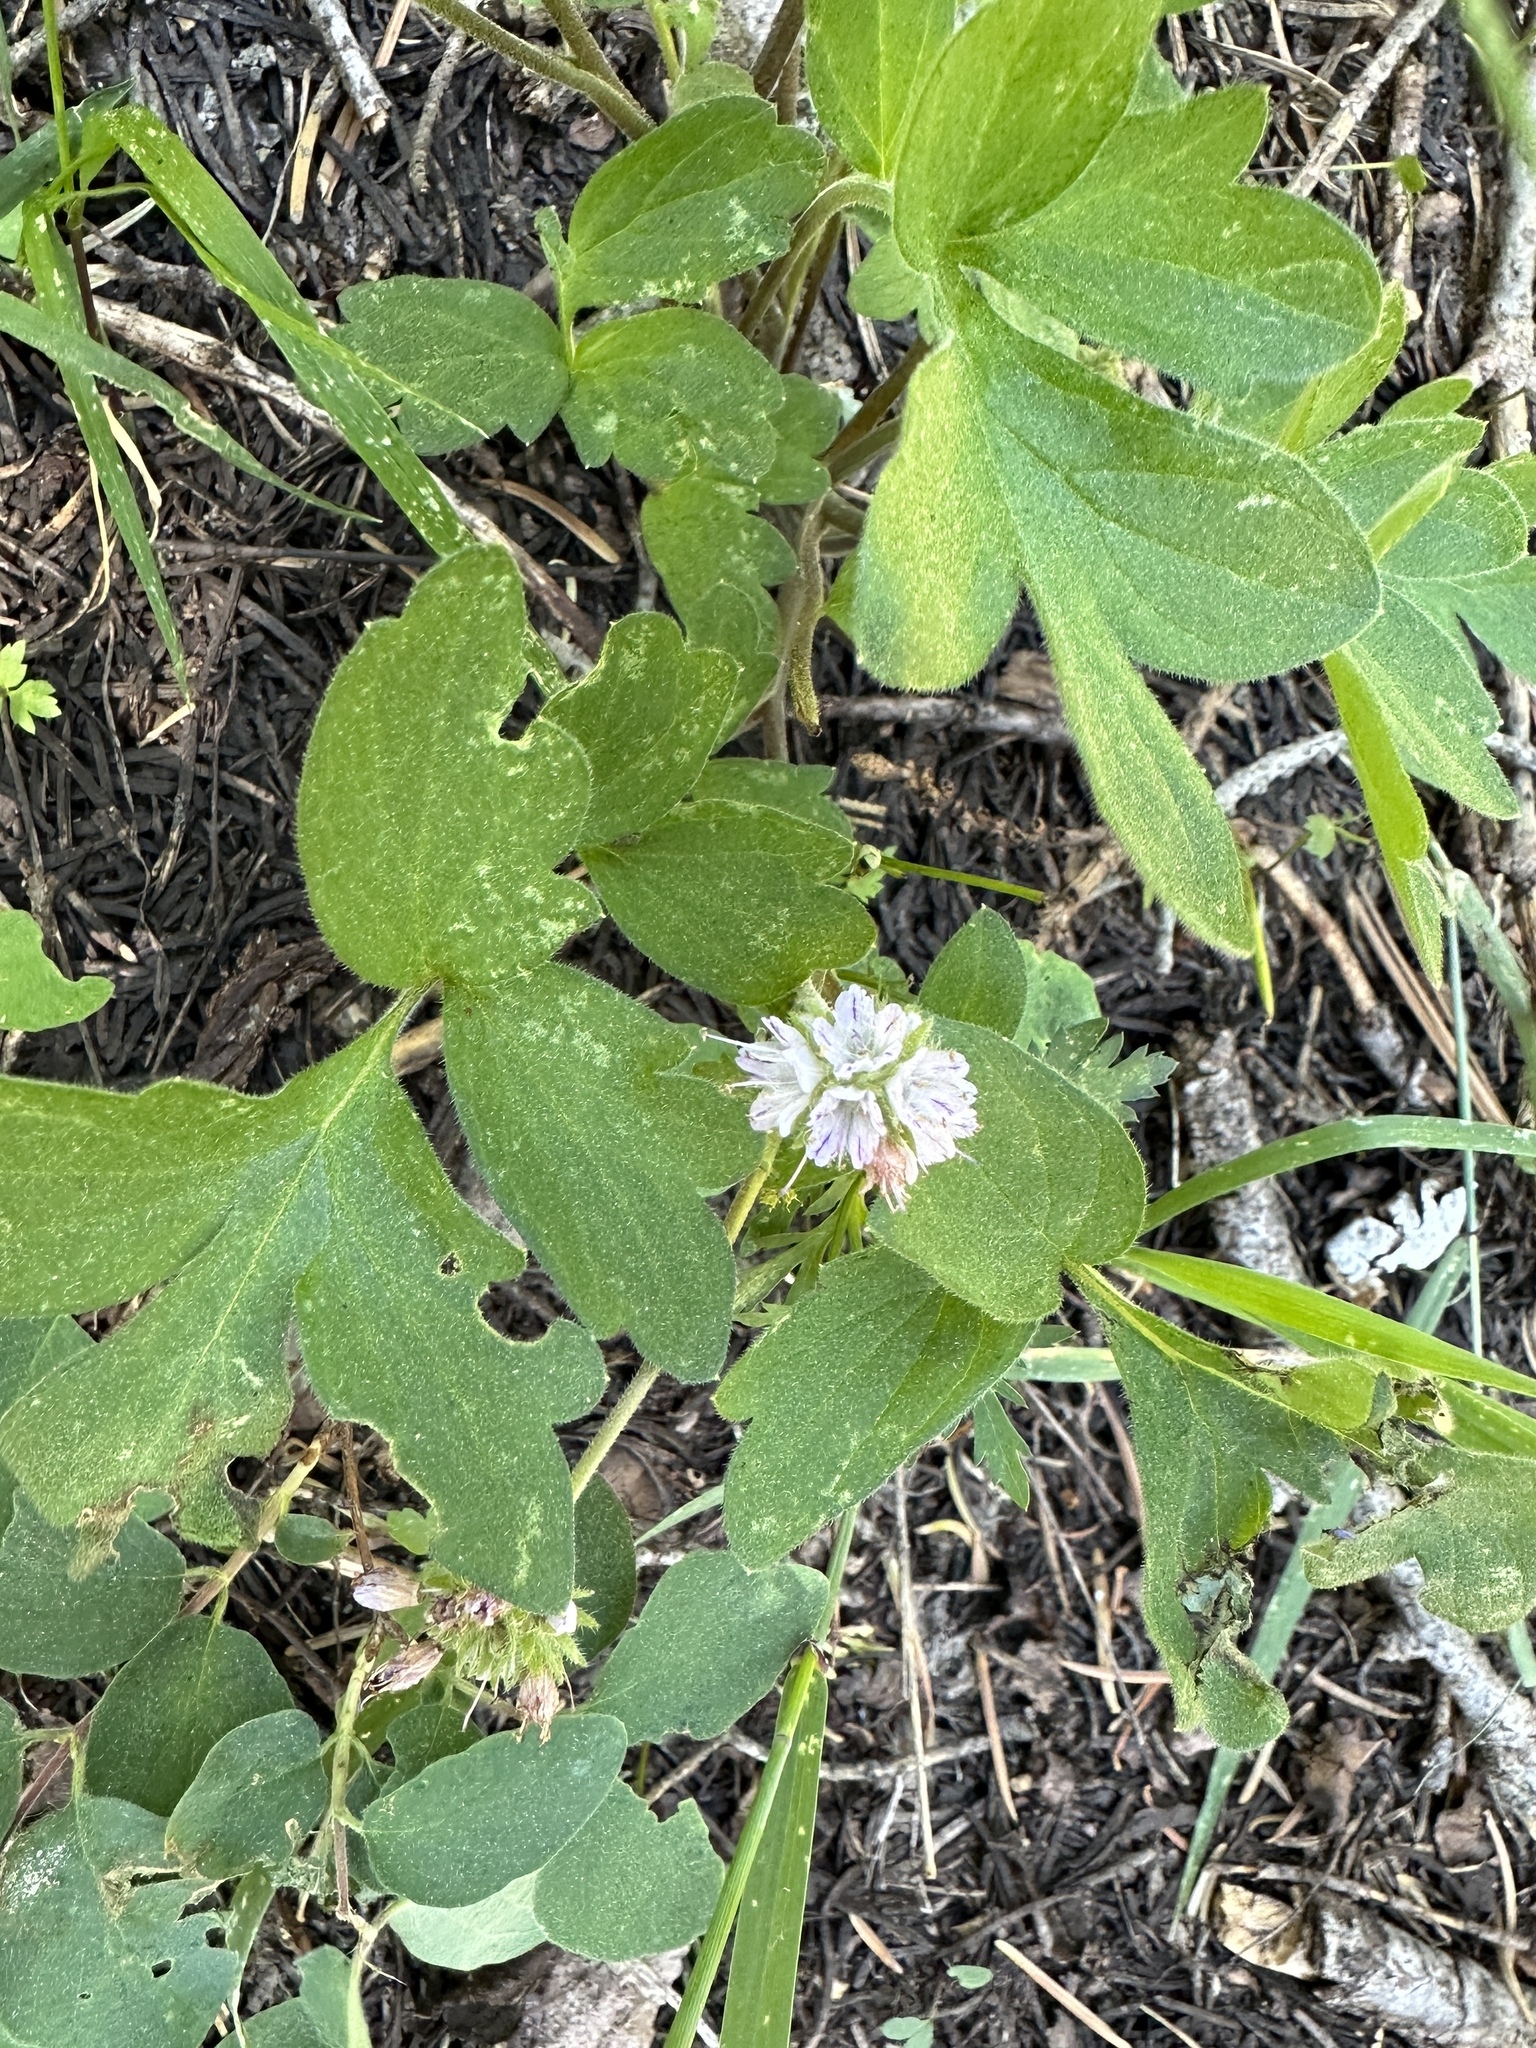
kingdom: Plantae
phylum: Tracheophyta
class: Magnoliopsida
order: Boraginales
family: Hydrophyllaceae
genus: Hydrophyllum
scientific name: Hydrophyllum occidentale
